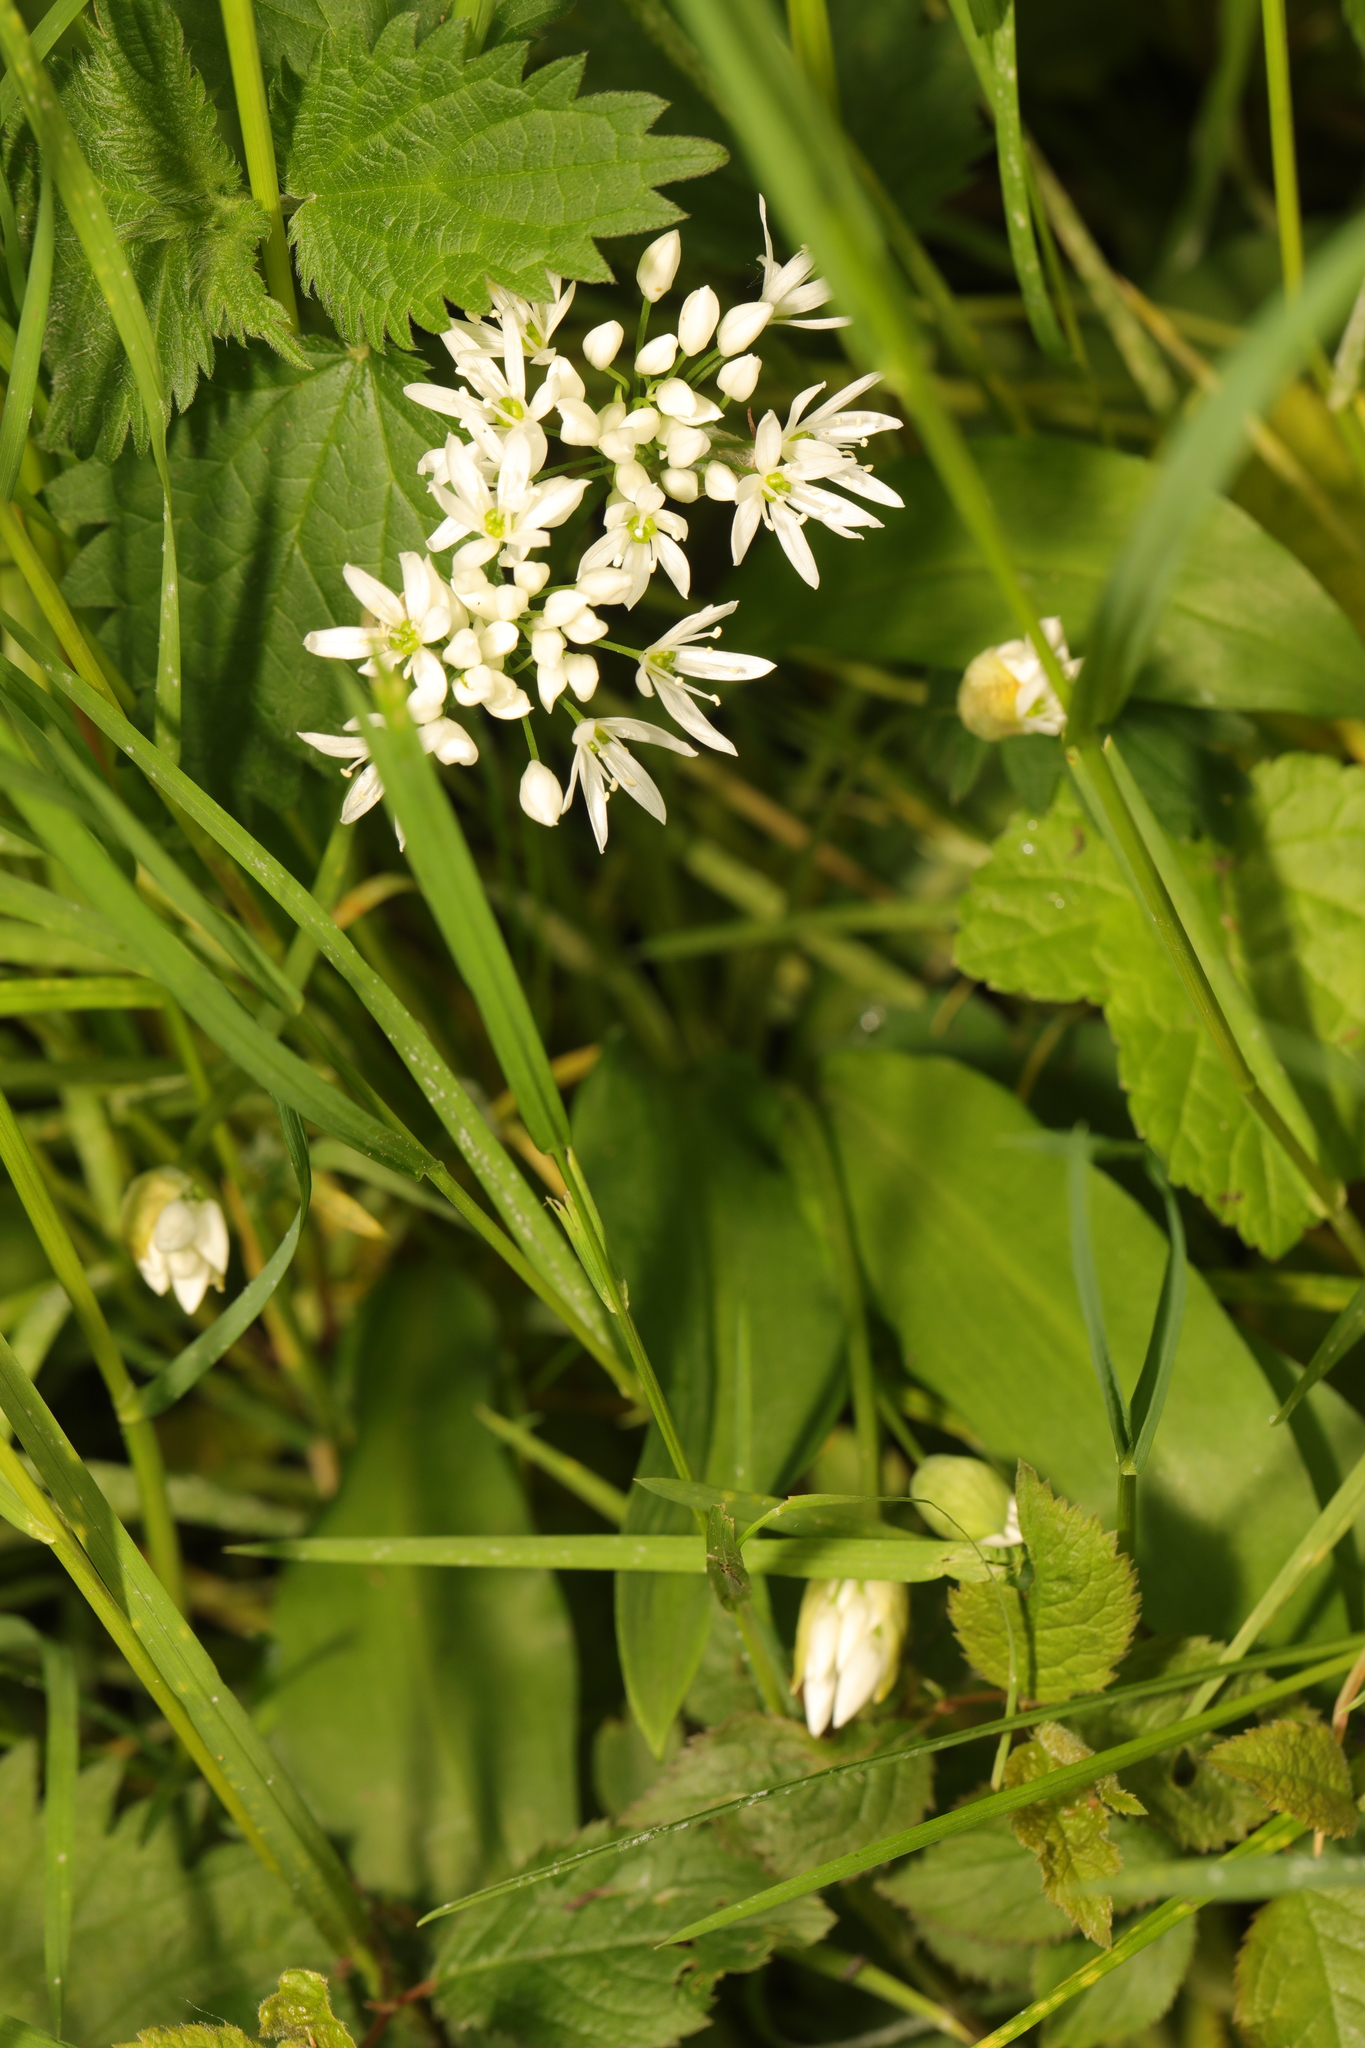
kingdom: Plantae
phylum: Tracheophyta
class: Liliopsida
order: Asparagales
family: Amaryllidaceae
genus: Allium
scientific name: Allium ursinum
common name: Ramsons
